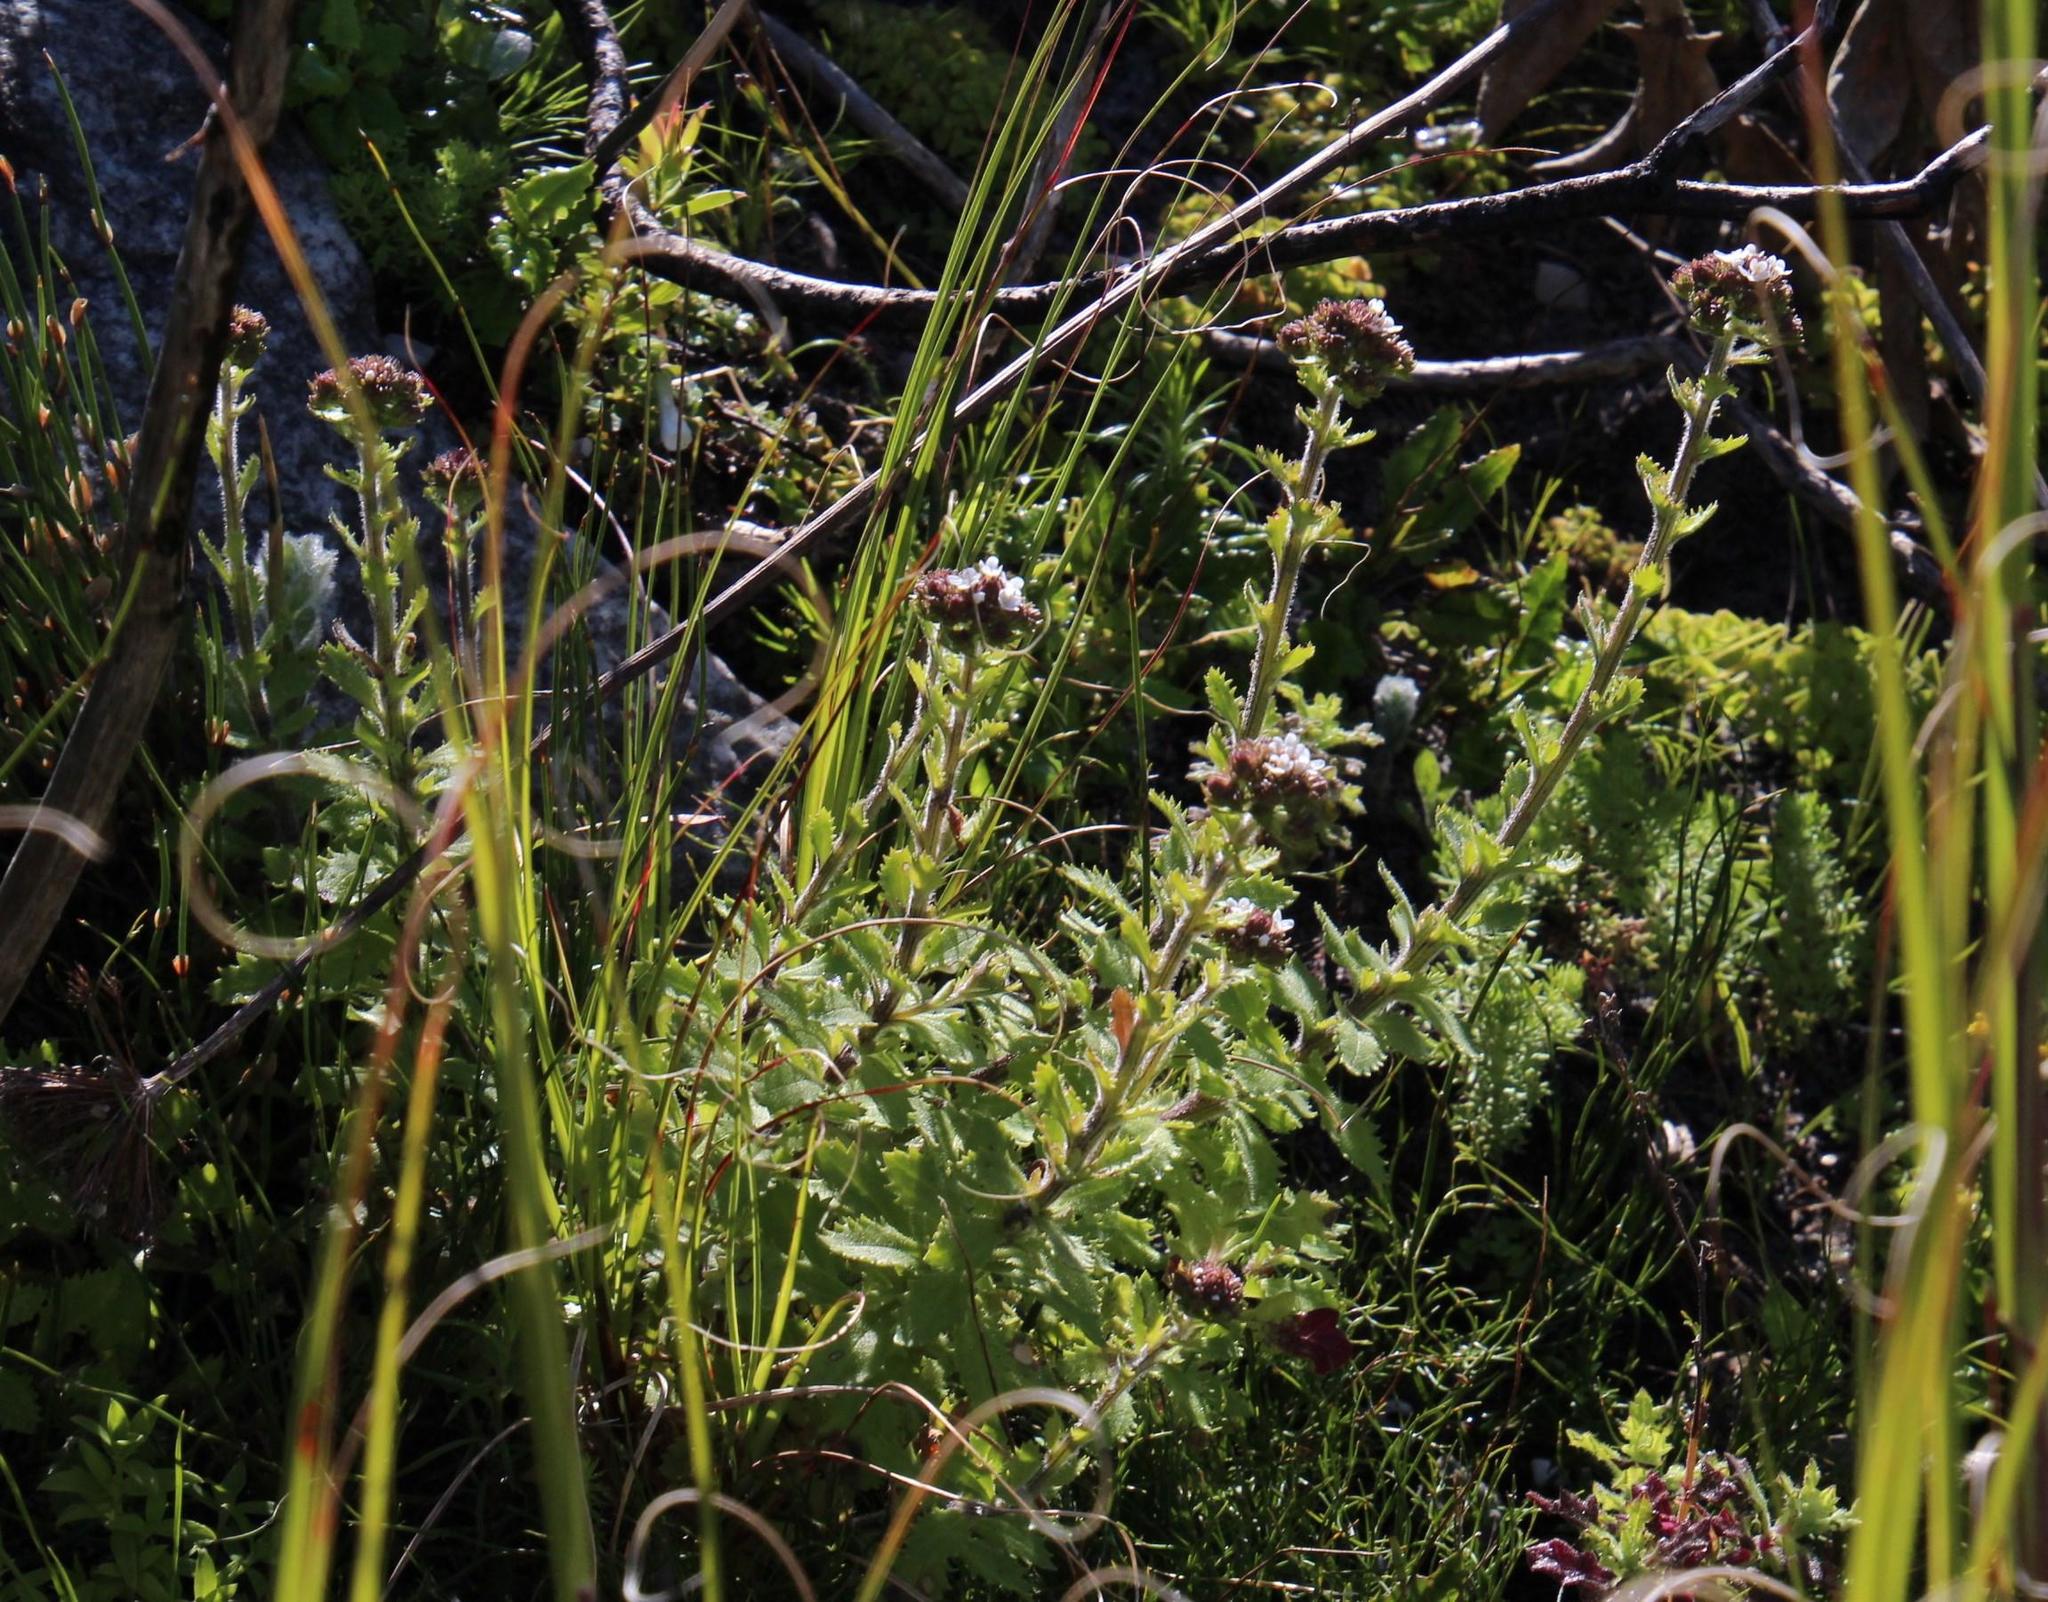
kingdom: Plantae
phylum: Tracheophyta
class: Magnoliopsida
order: Lamiales
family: Scrophulariaceae
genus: Pseudoselago
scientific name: Pseudoselago peninsulae
